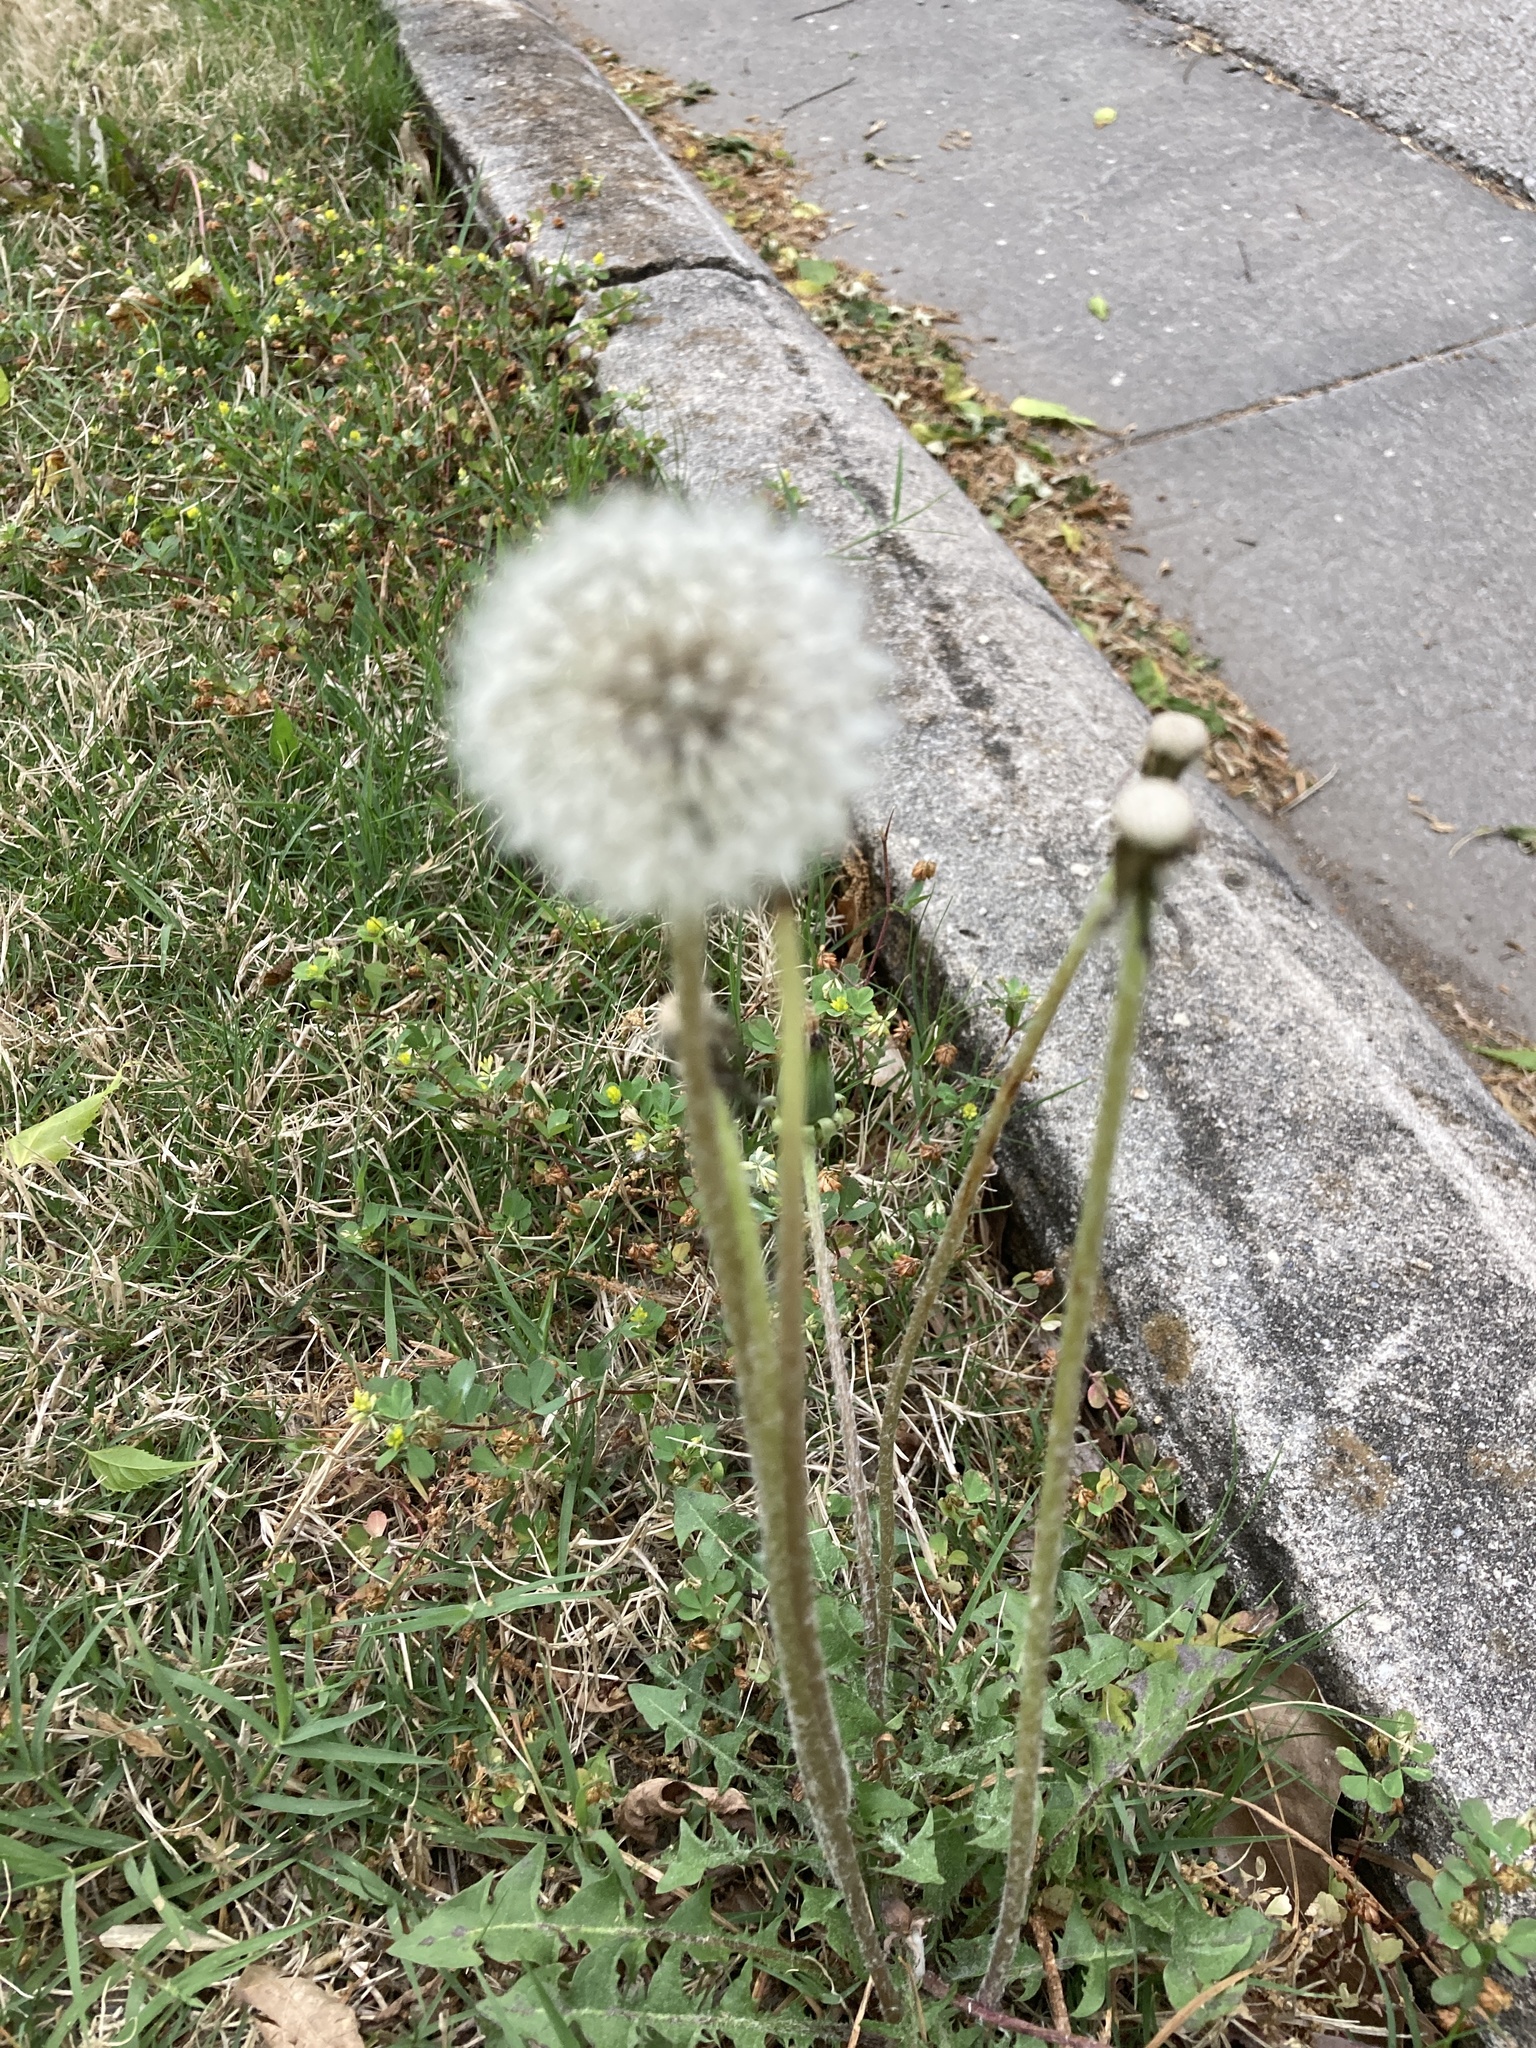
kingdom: Plantae
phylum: Tracheophyta
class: Magnoliopsida
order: Asterales
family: Asteraceae
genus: Taraxacum
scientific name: Taraxacum officinale
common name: Common dandelion
